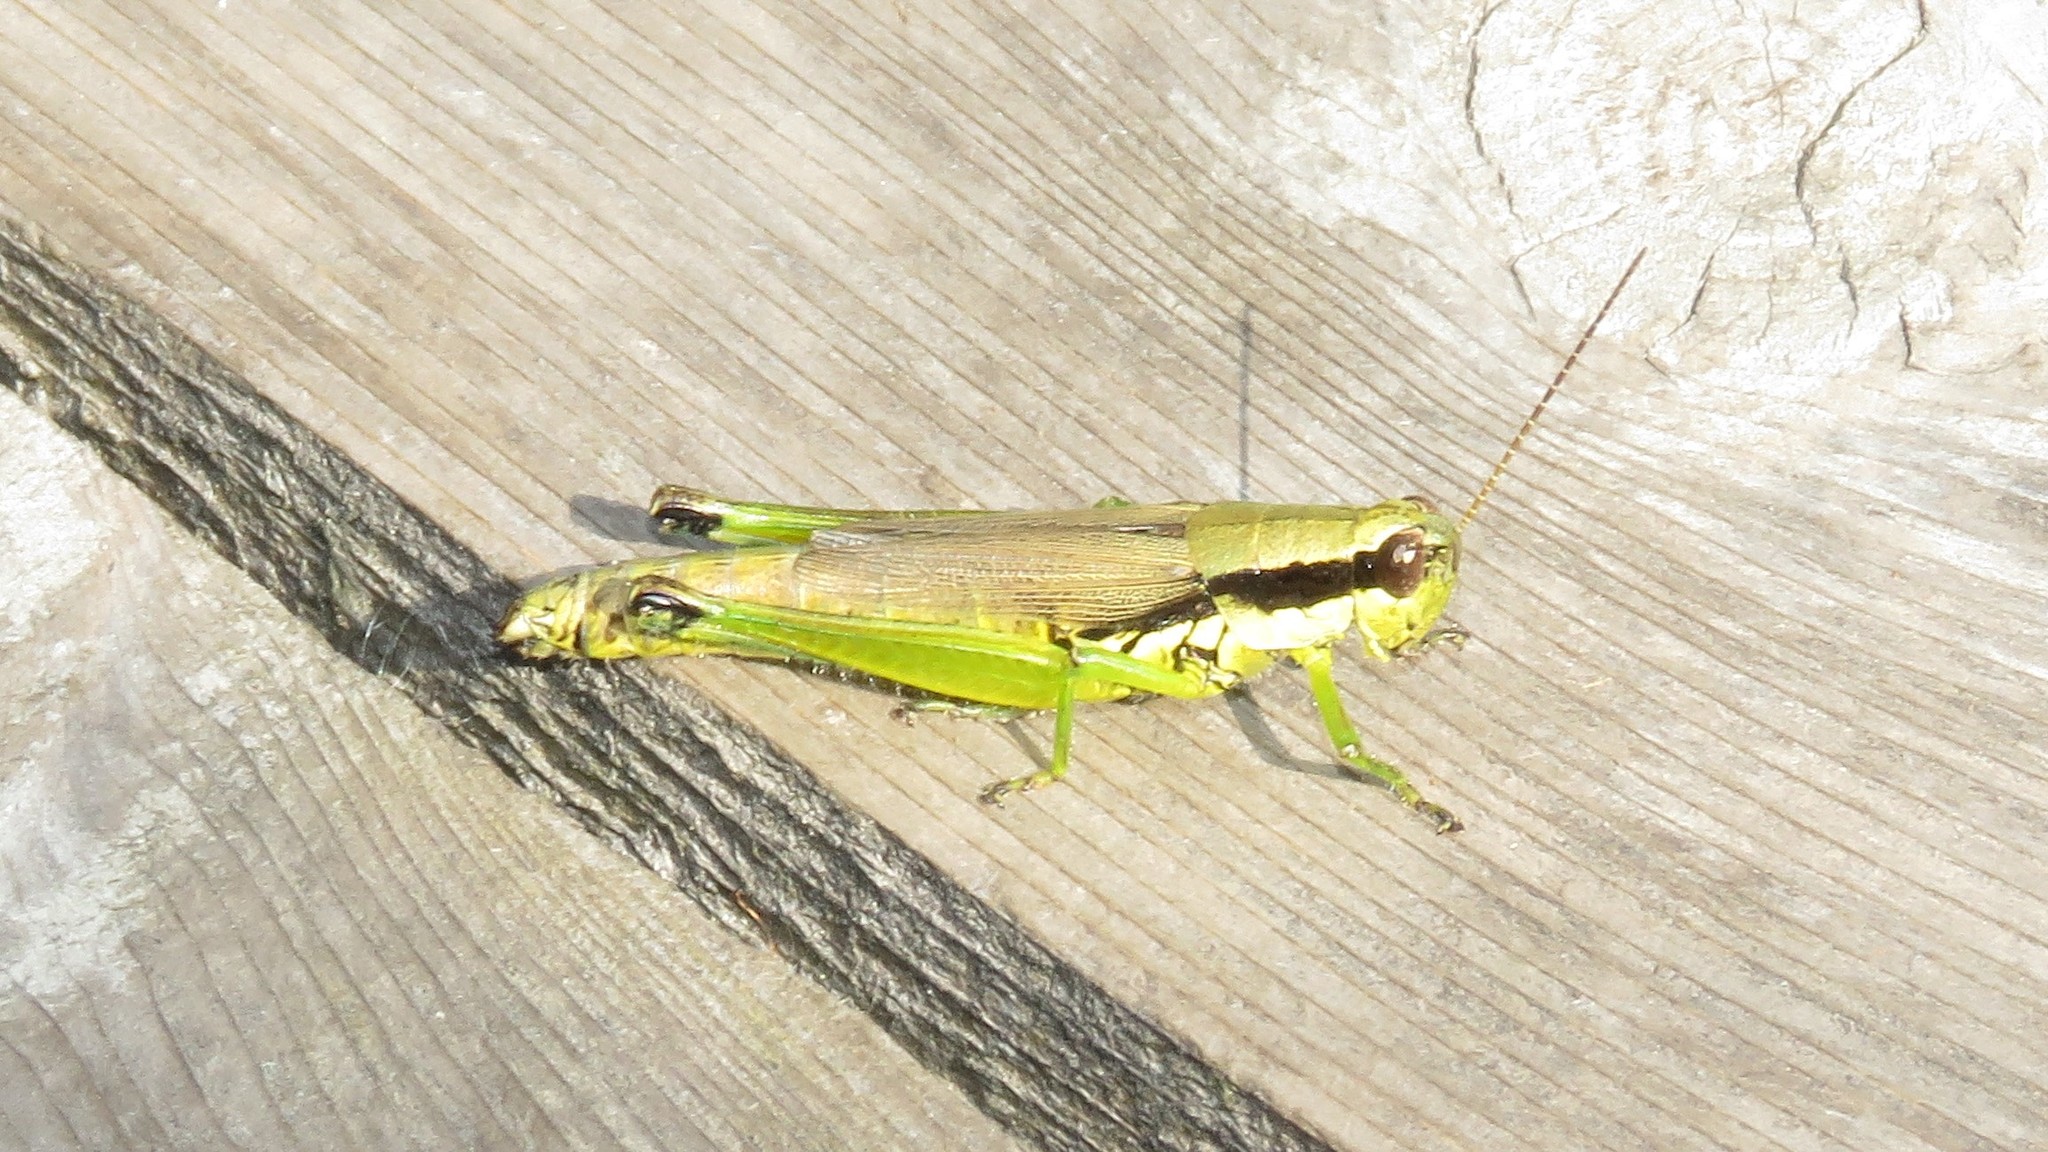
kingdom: Animalia
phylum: Arthropoda
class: Insecta
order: Orthoptera
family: Acrididae
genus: Paroxya
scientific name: Paroxya hoosieri
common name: Hoosier locust
